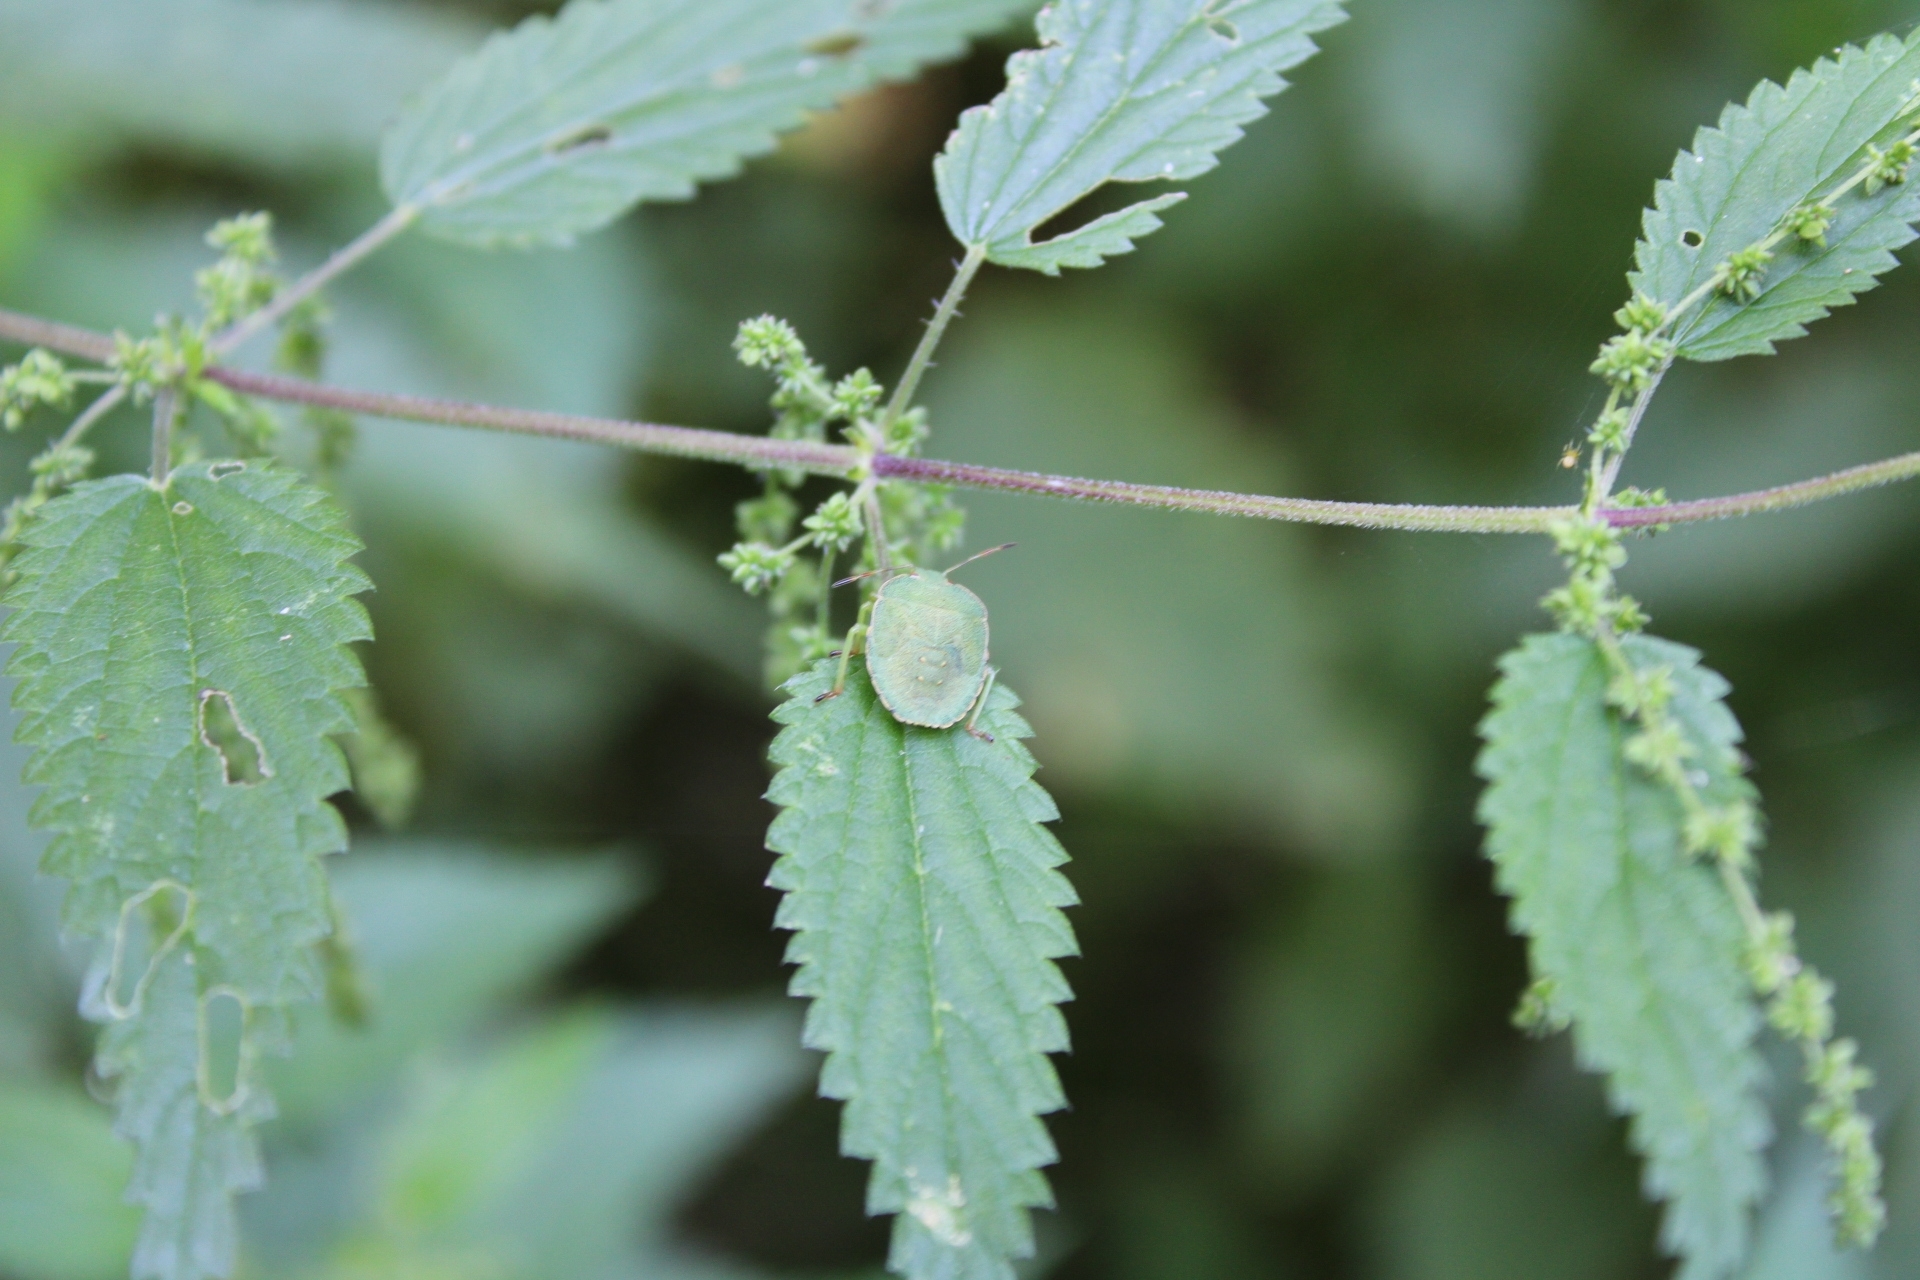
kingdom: Animalia
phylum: Arthropoda
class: Insecta
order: Hemiptera
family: Pentatomidae
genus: Palomena
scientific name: Palomena prasina
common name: Green shieldbug
